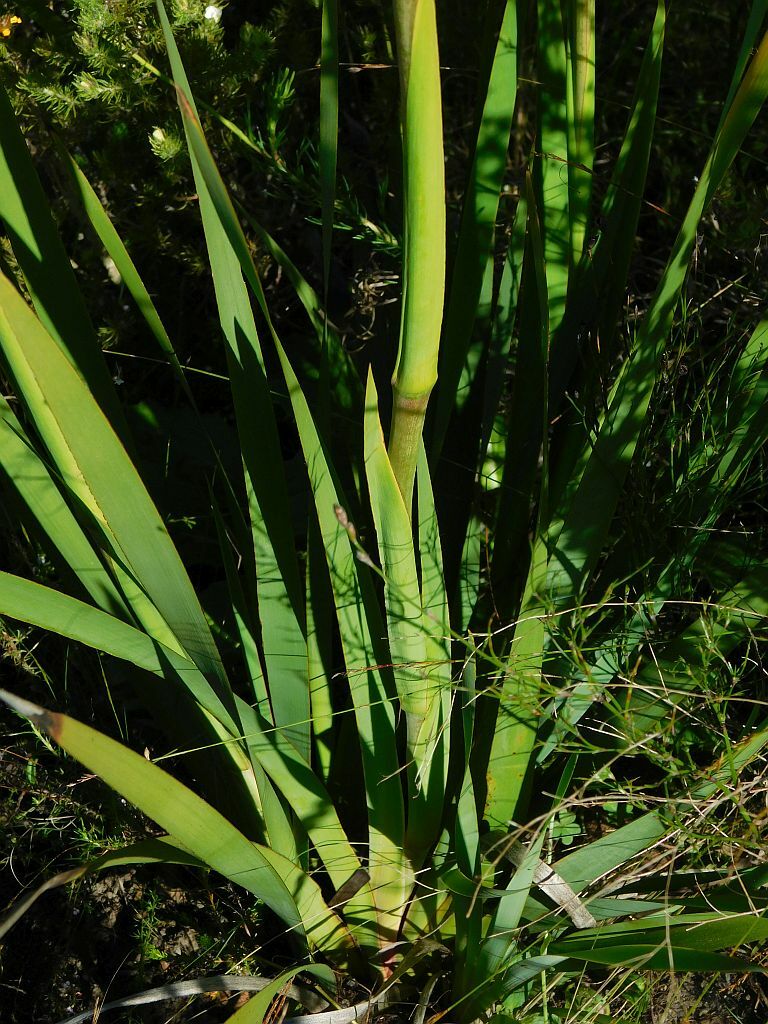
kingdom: Plantae
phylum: Tracheophyta
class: Liliopsida
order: Asparagales
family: Iridaceae
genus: Aristea
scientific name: Aristea capitata
